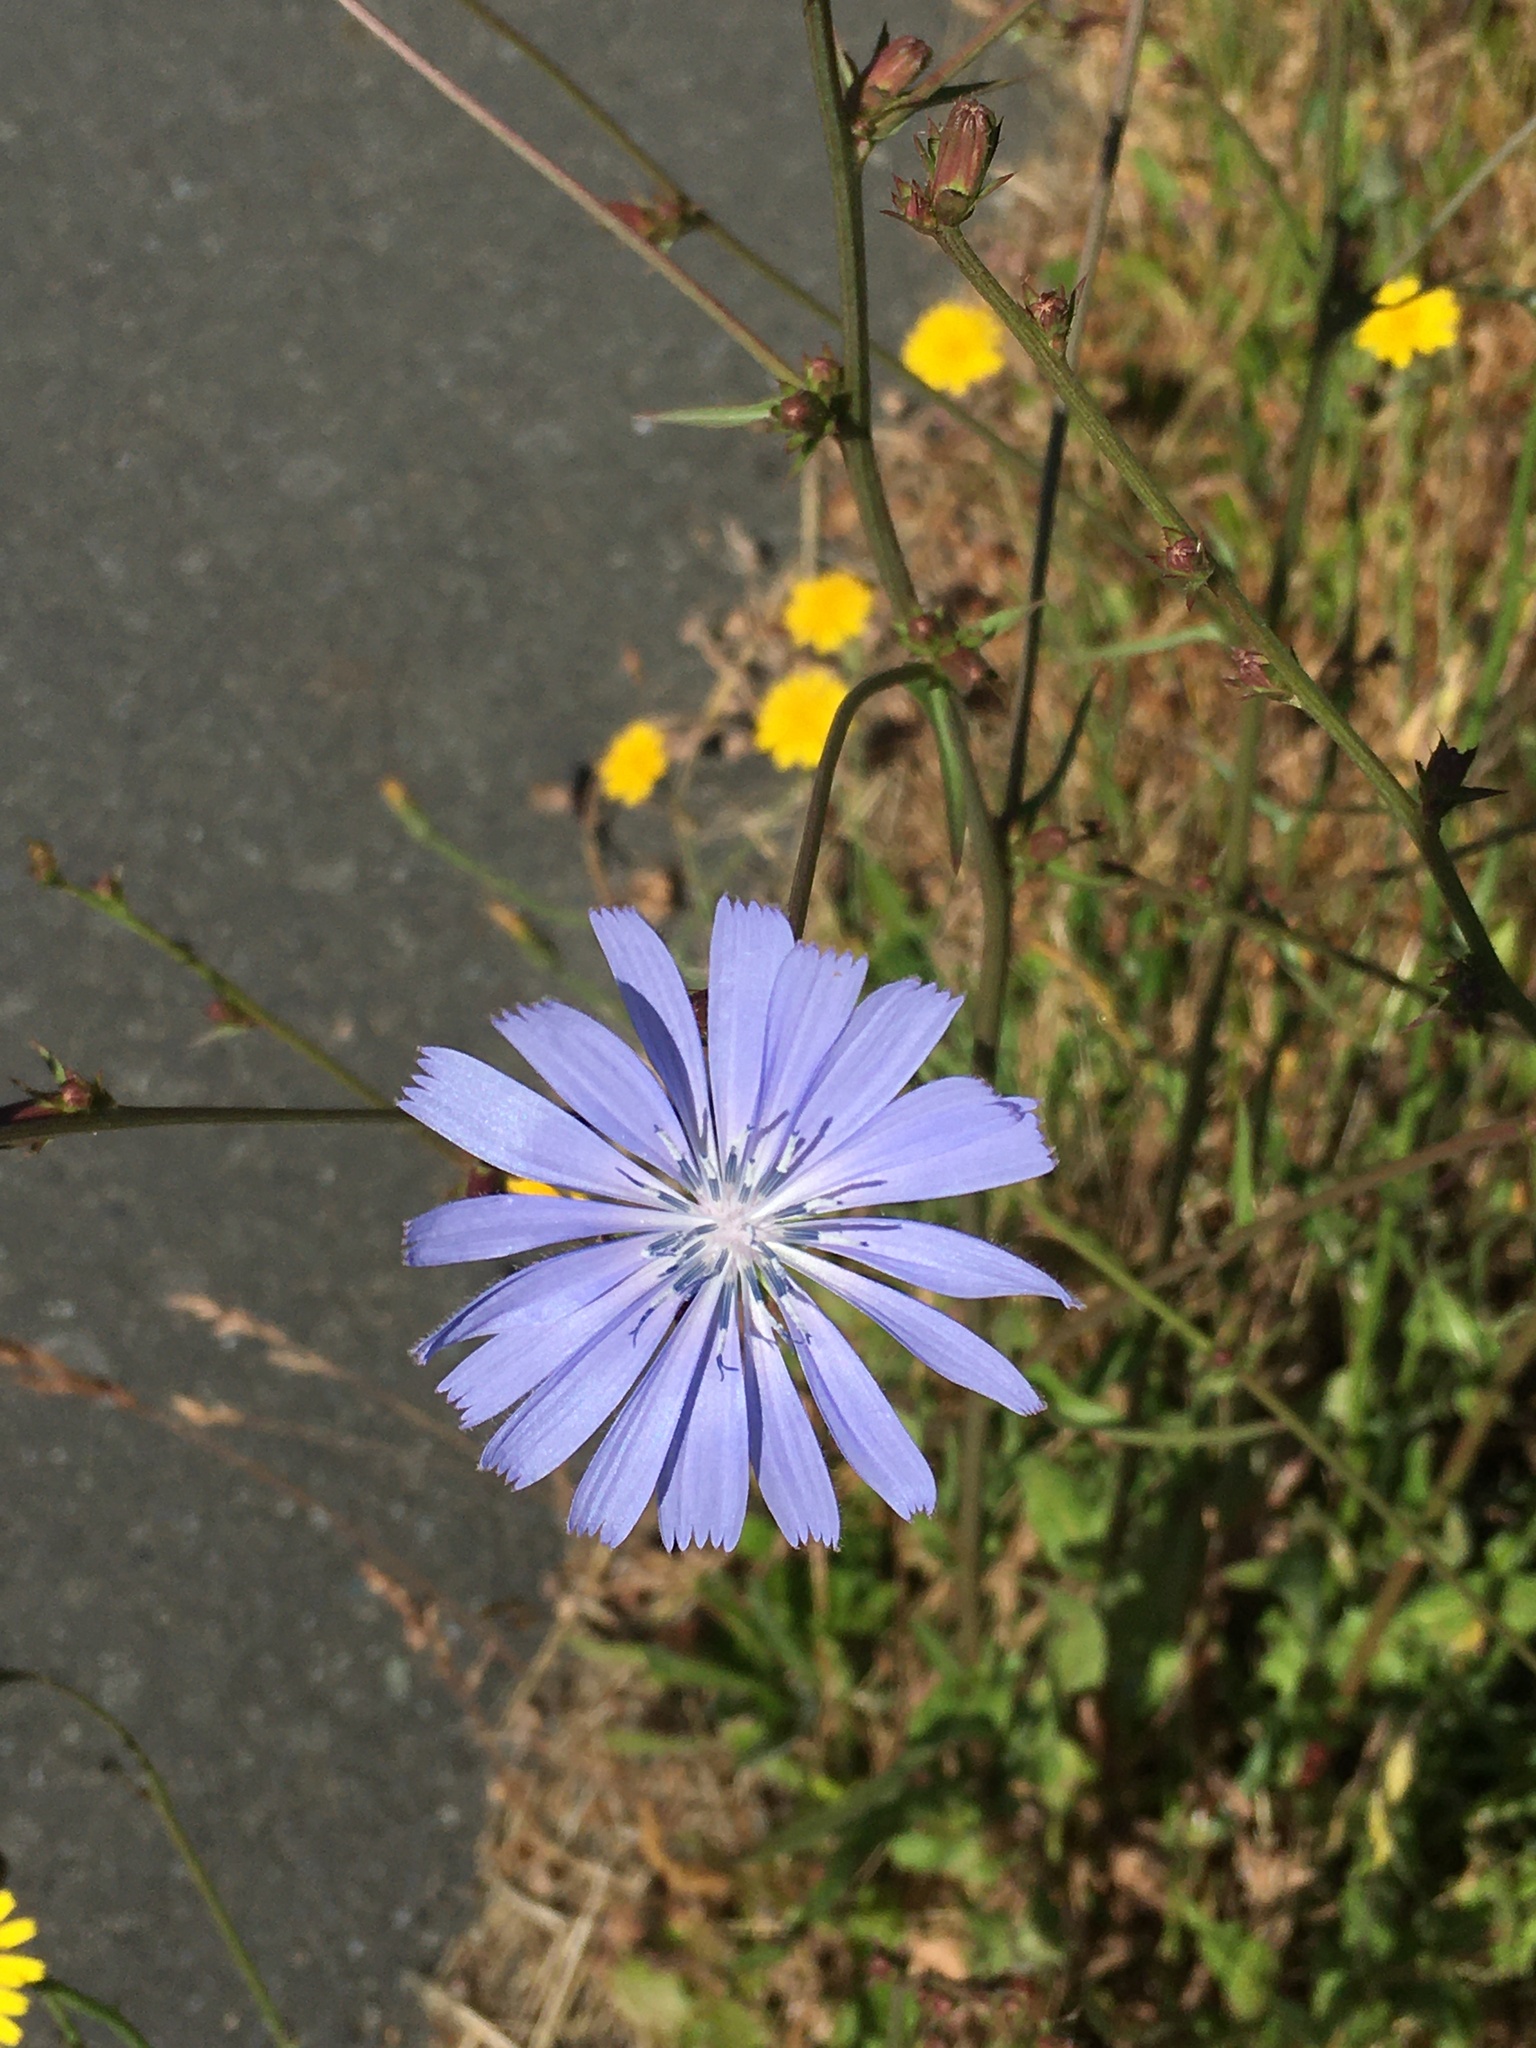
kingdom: Plantae
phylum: Tracheophyta
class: Magnoliopsida
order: Asterales
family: Asteraceae
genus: Cichorium
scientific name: Cichorium intybus
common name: Chicory
